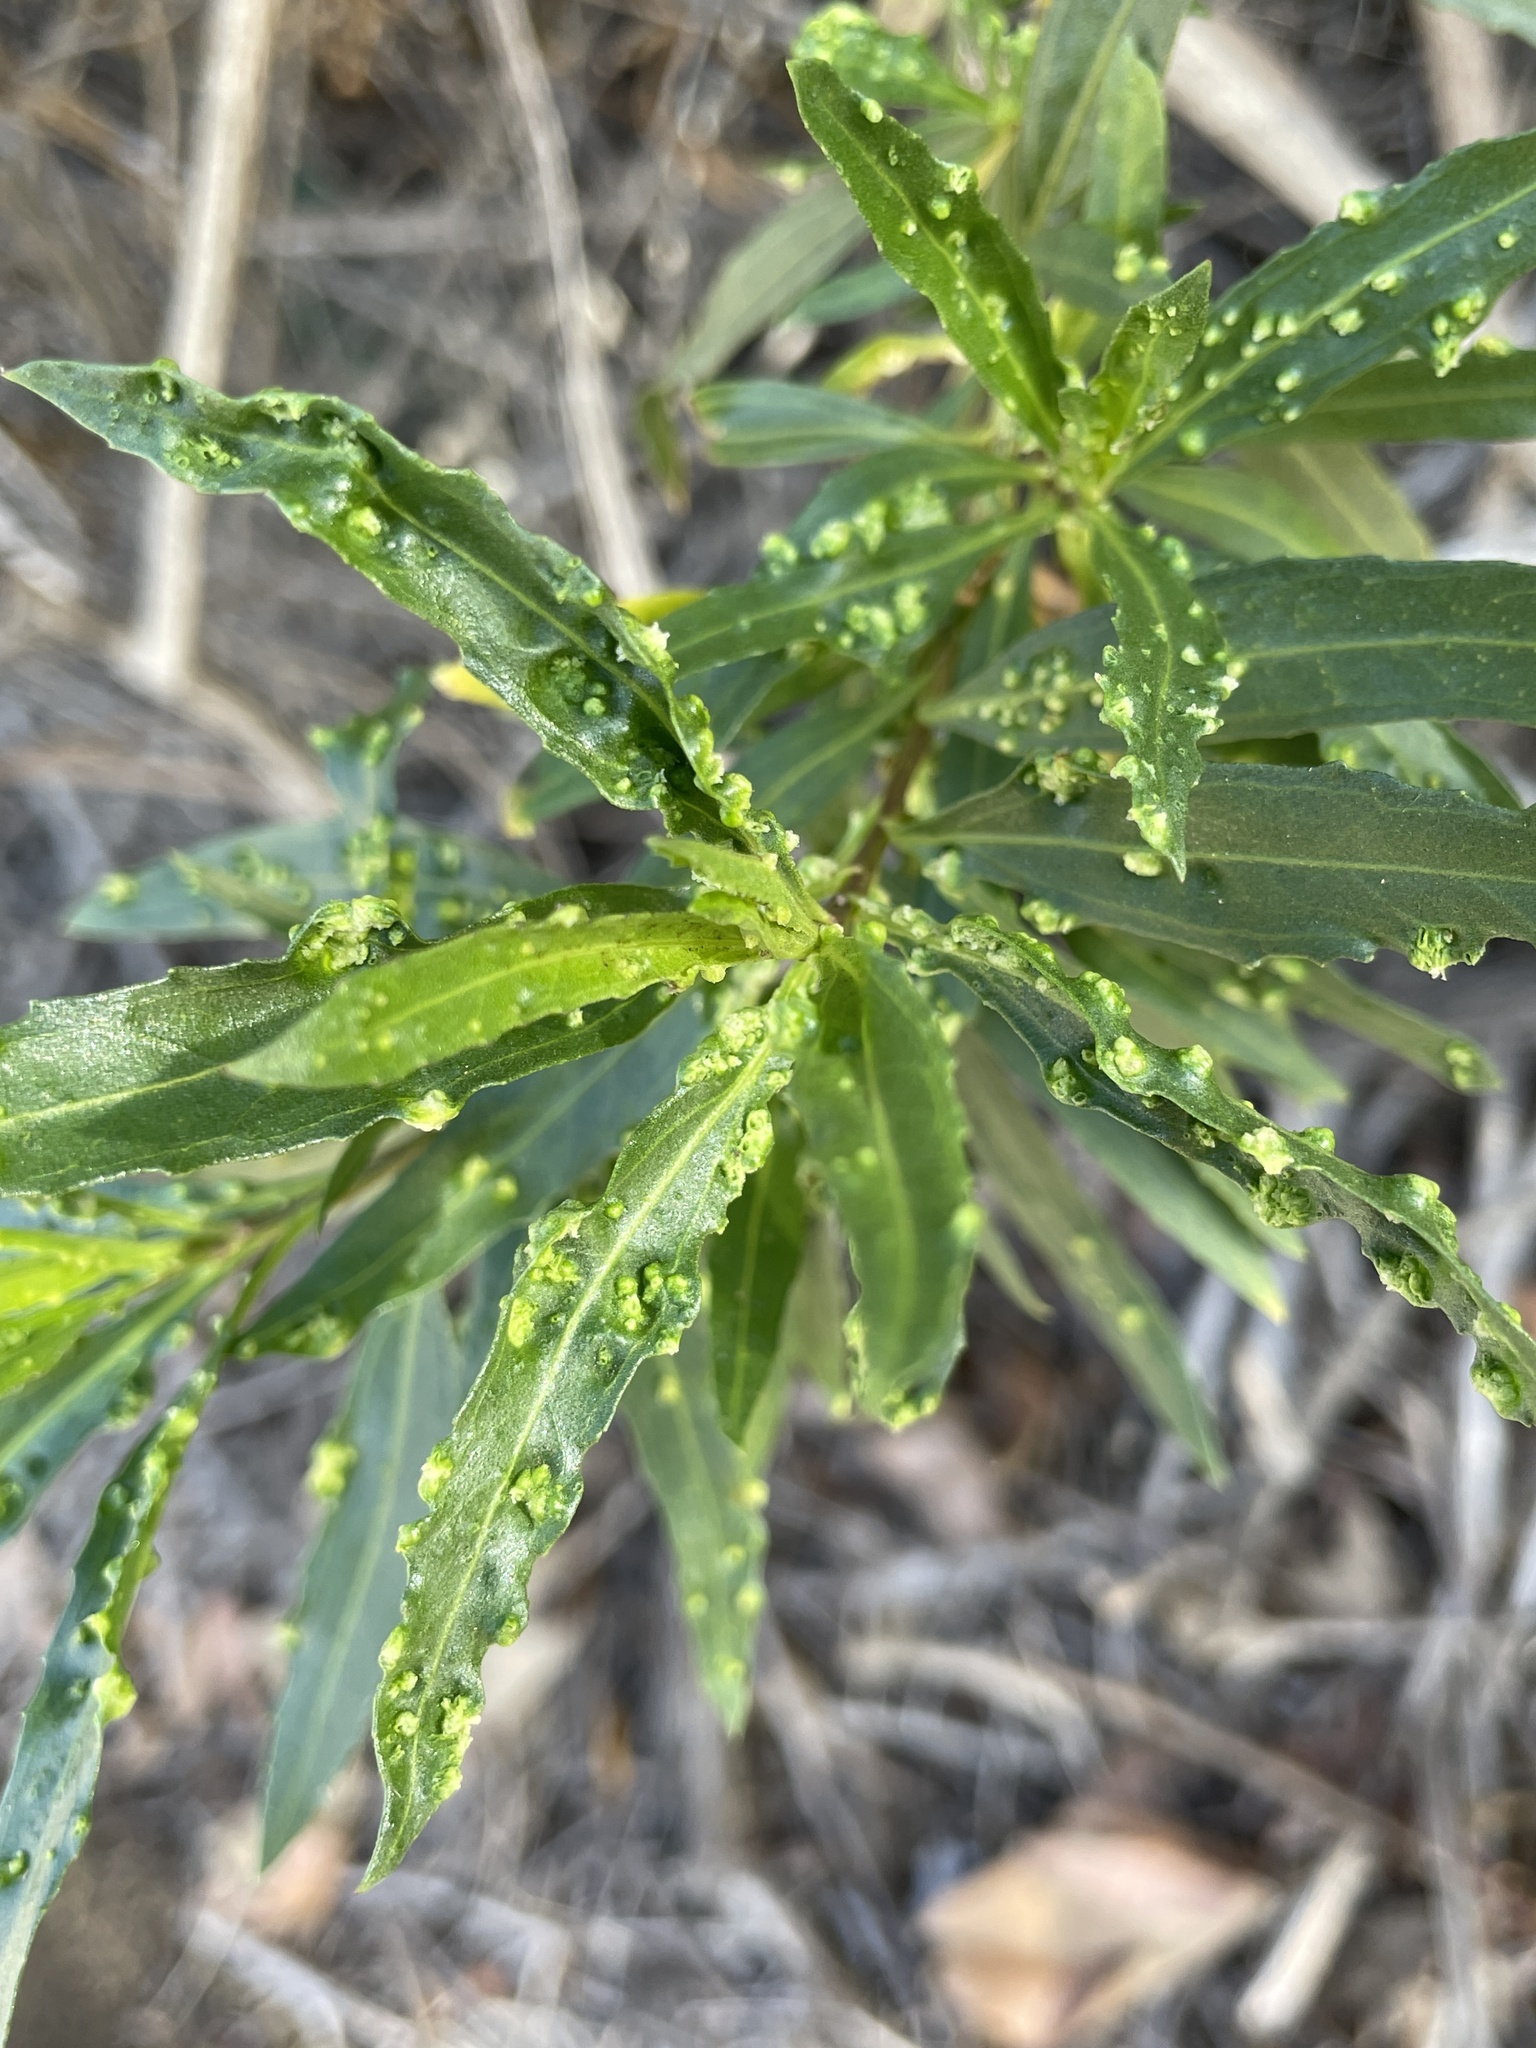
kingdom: Animalia
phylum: Arthropoda
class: Arachnida
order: Trombidiformes
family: Eriophyidae
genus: Aceria
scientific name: Aceria
